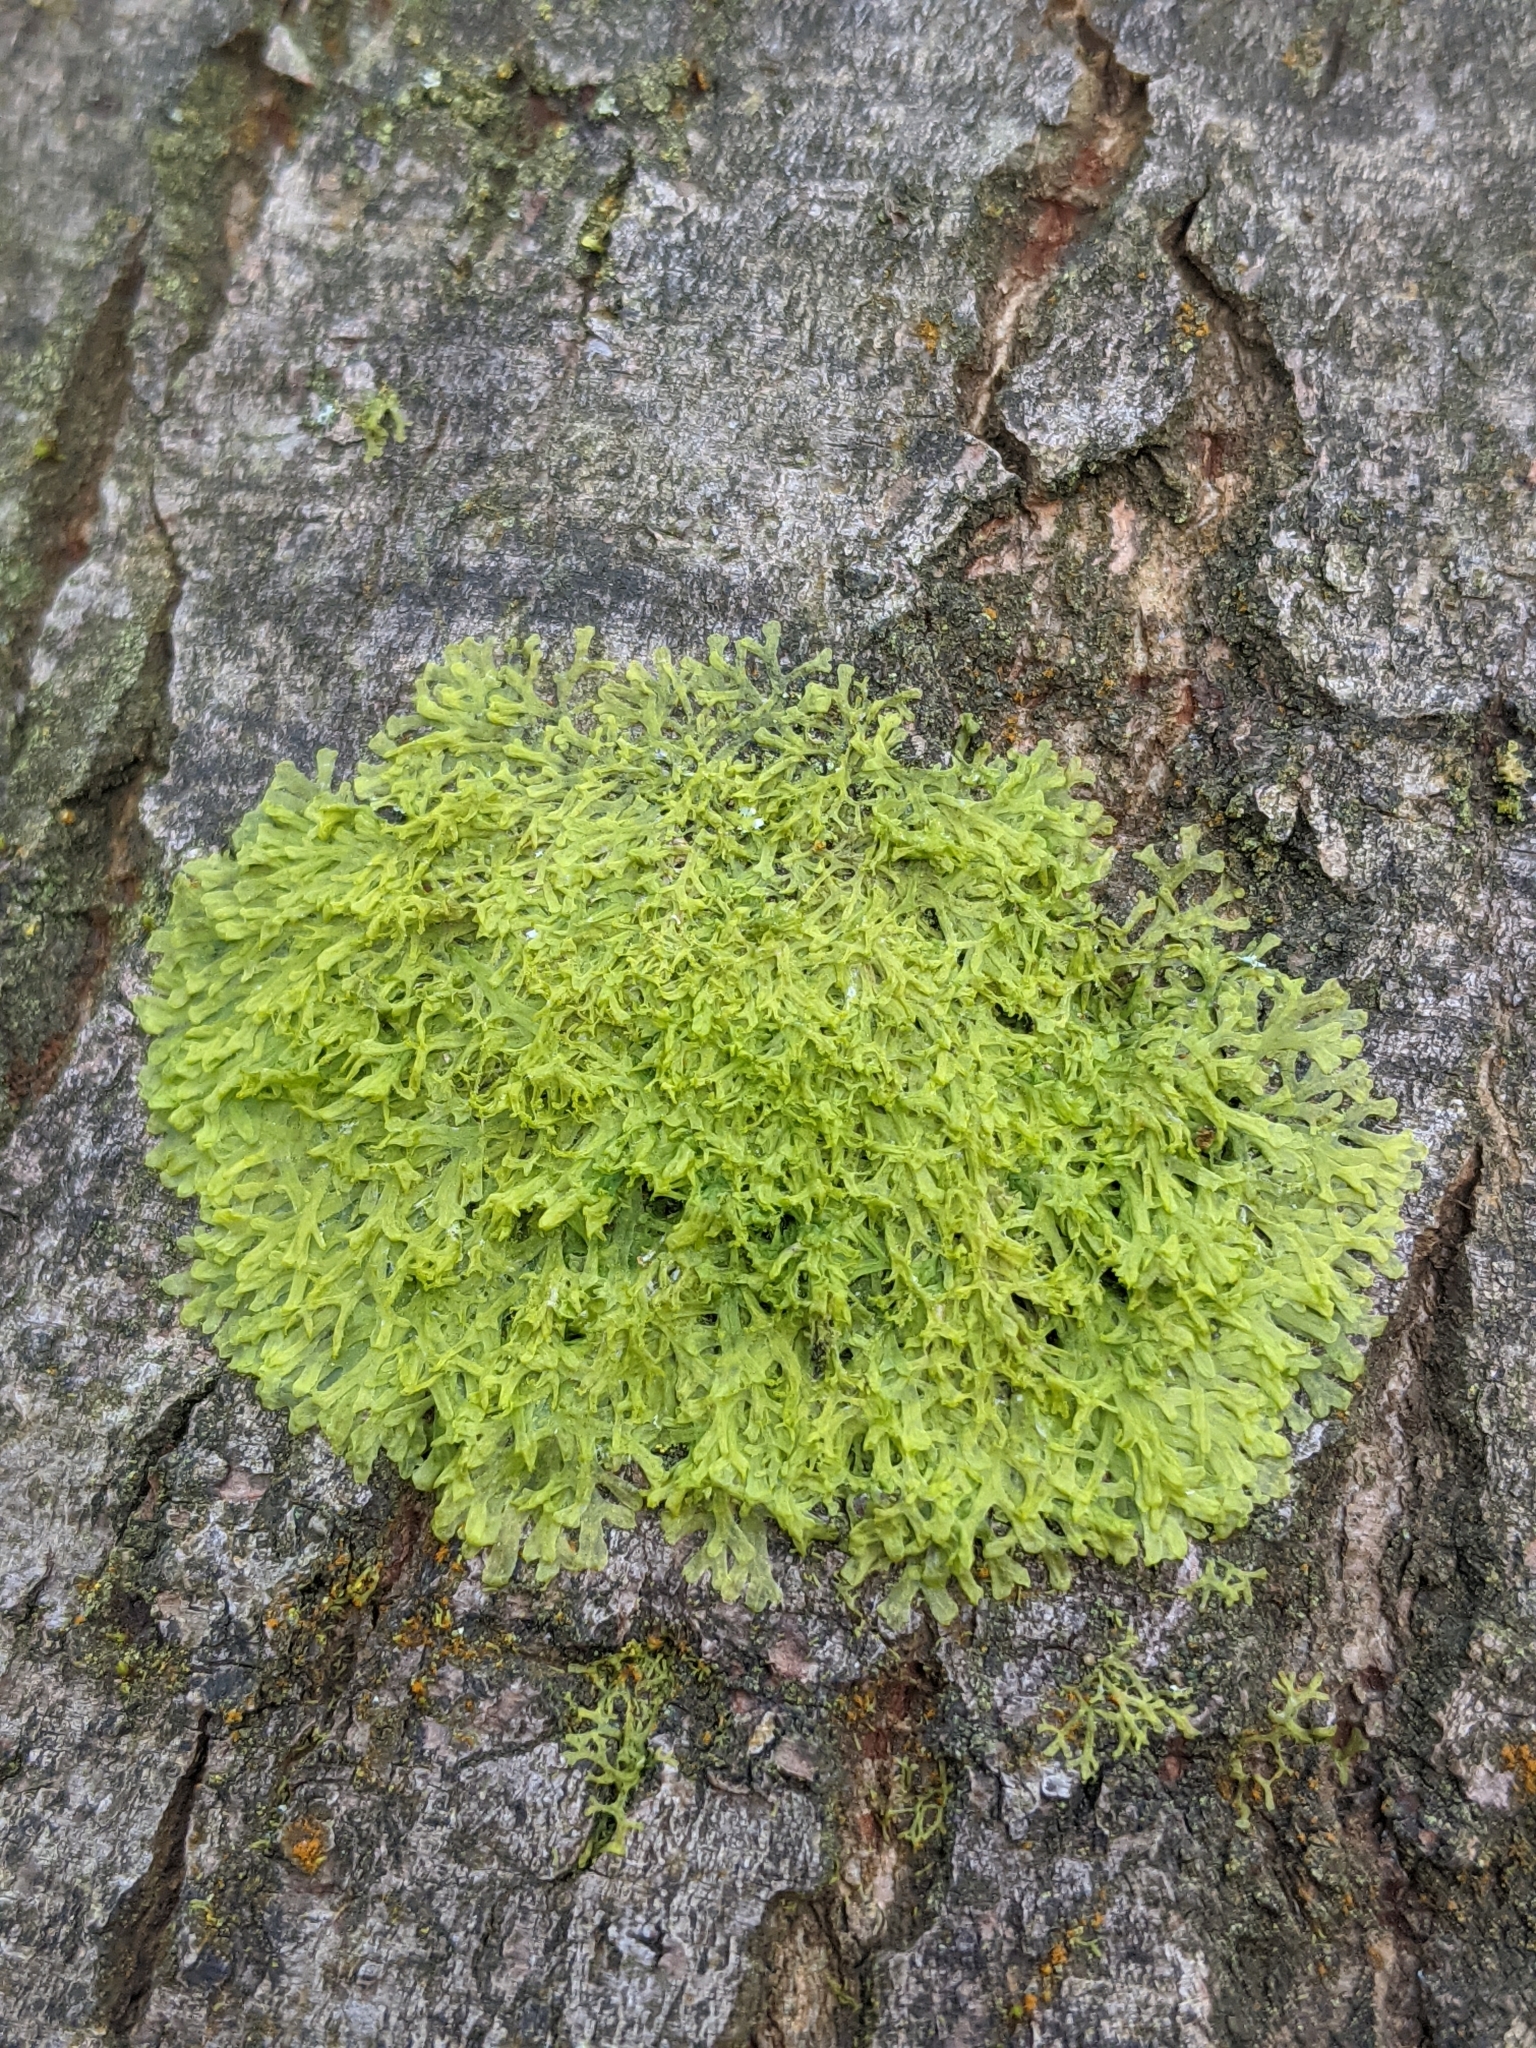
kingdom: Plantae
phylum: Marchantiophyta
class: Jungermanniopsida
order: Metzgeriales
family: Metzgeriaceae
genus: Metzgeria
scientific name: Metzgeria violacea
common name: Blueish veilwort
